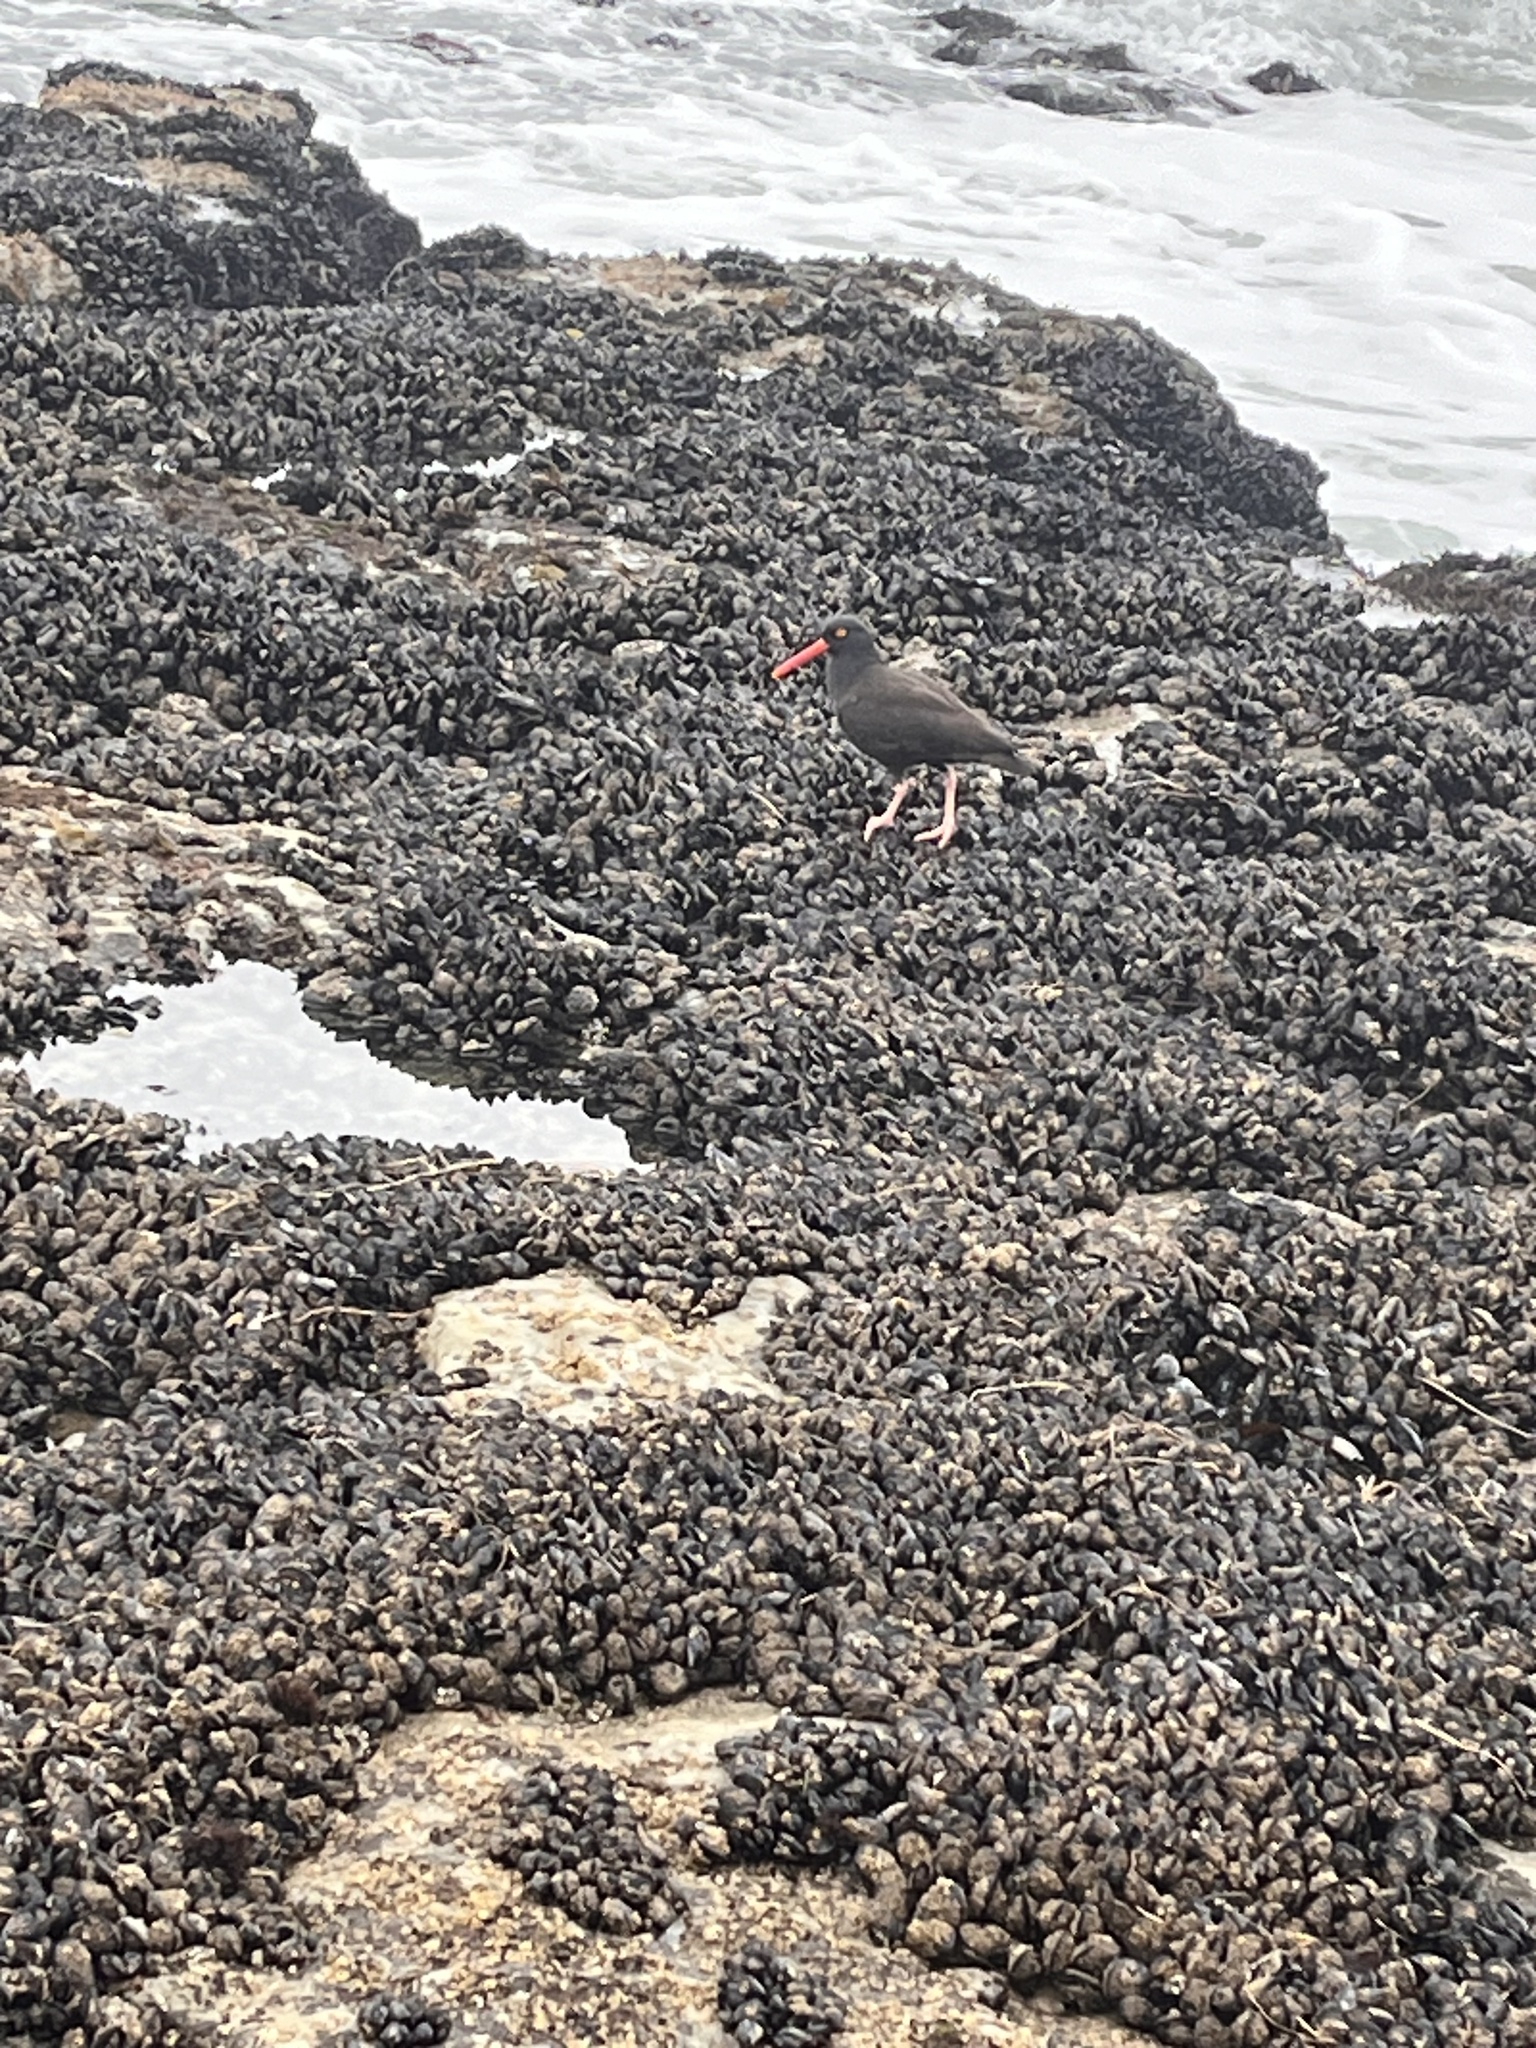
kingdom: Animalia
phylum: Chordata
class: Aves
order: Charadriiformes
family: Haematopodidae
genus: Haematopus
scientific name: Haematopus bachmani
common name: Black oystercatcher
